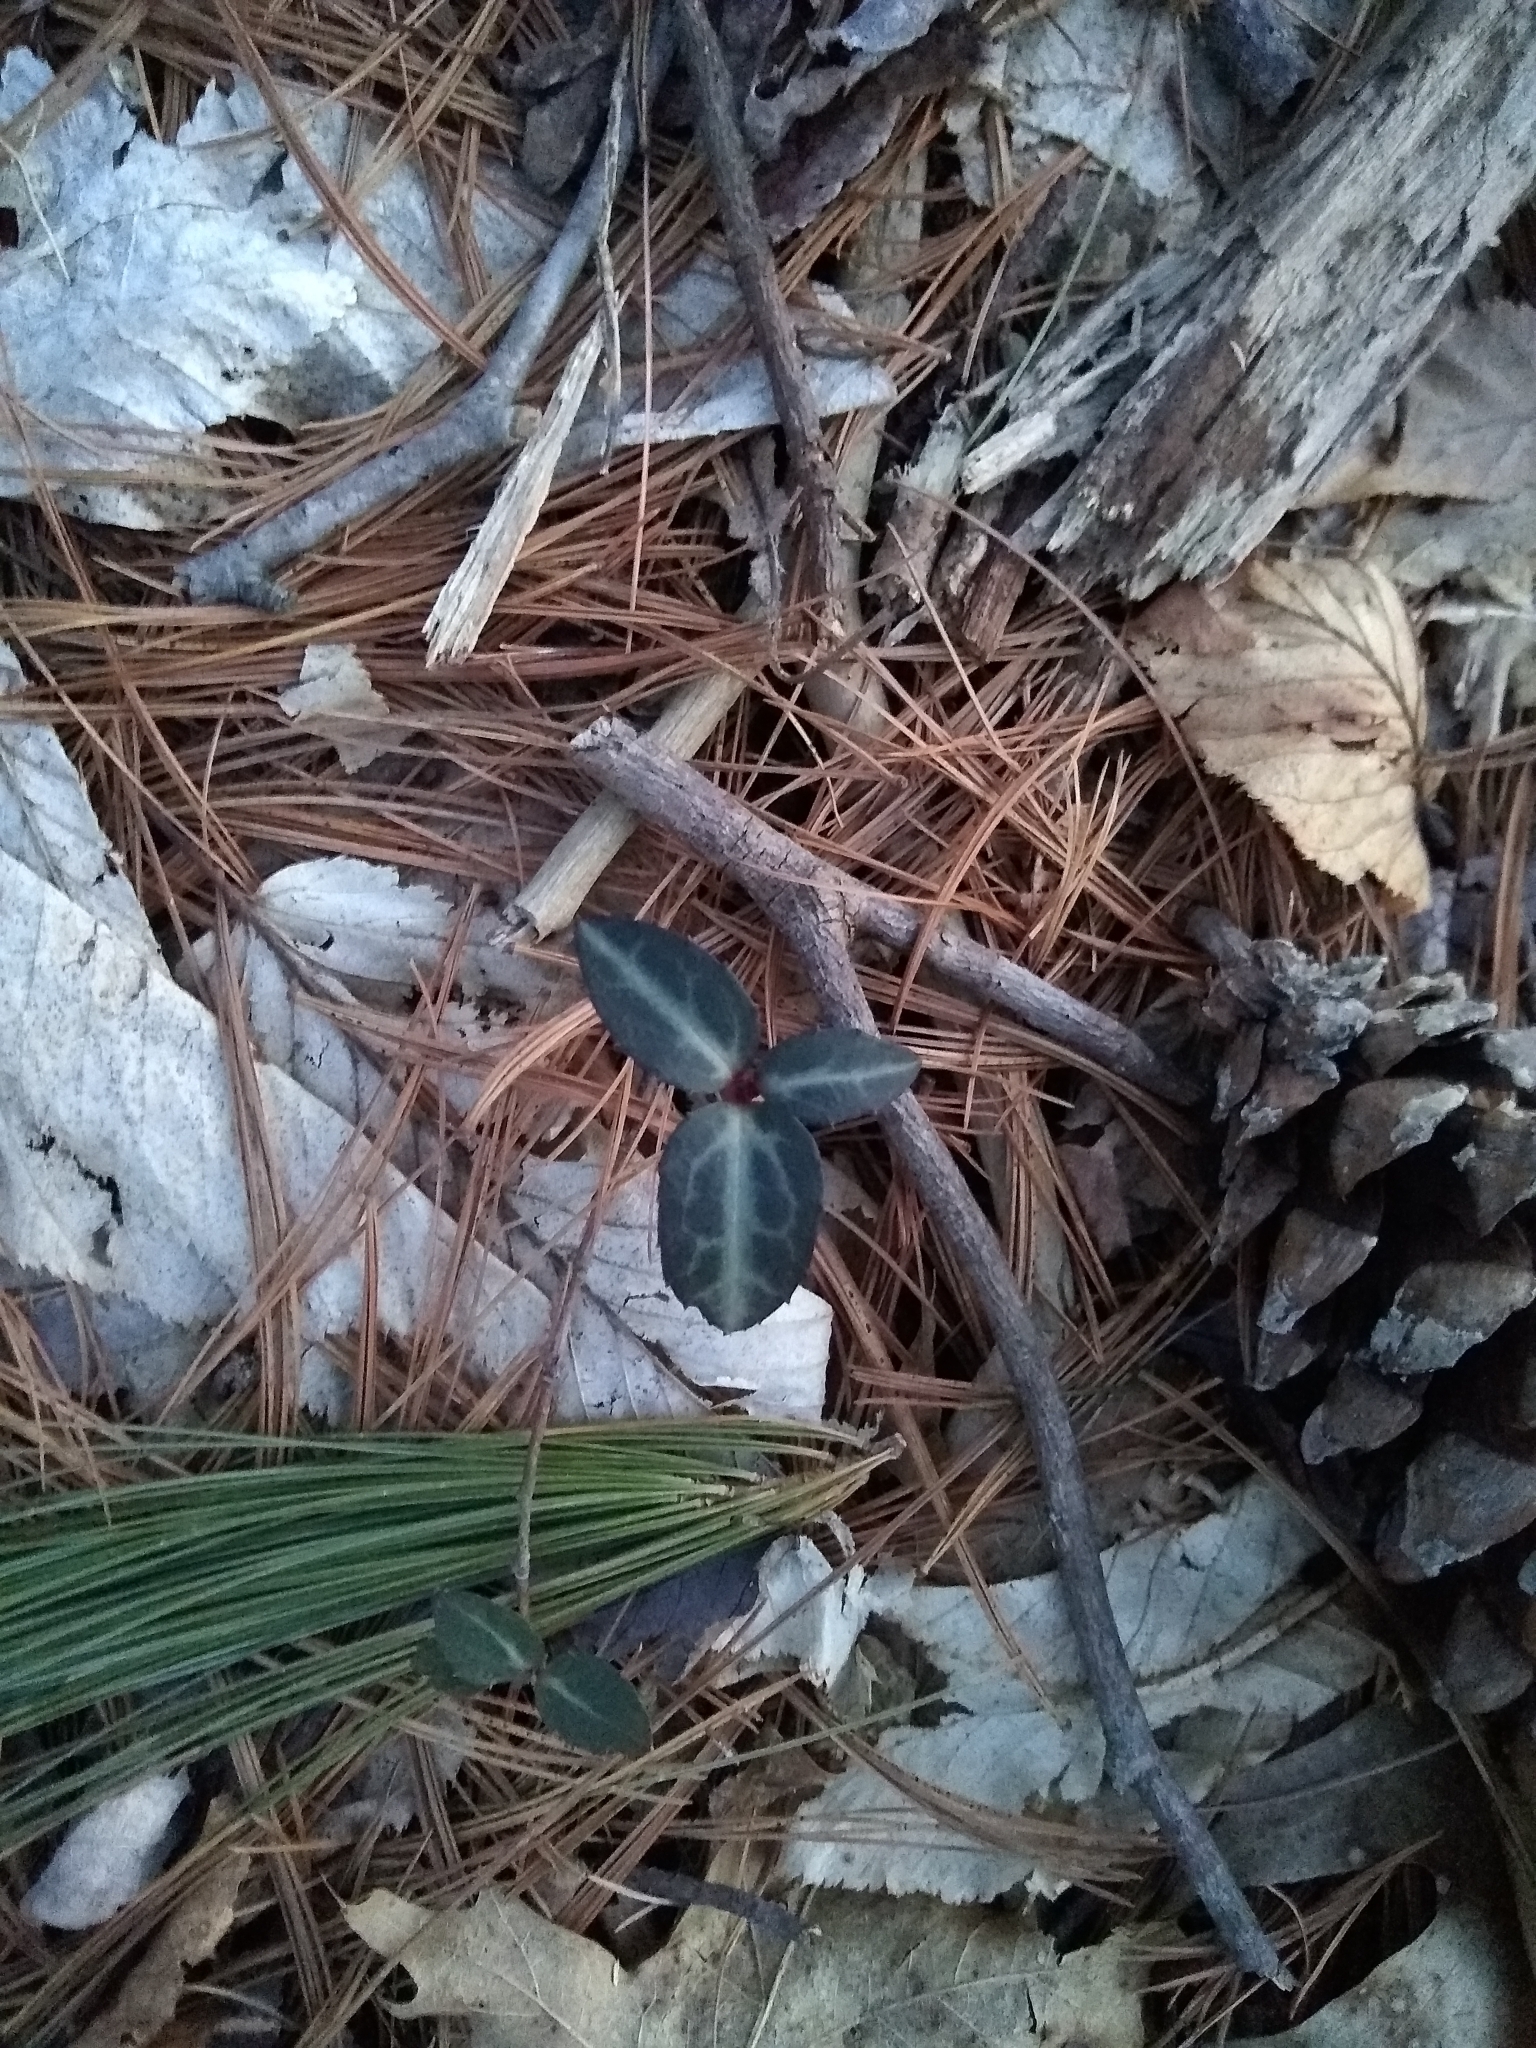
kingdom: Plantae
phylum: Tracheophyta
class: Magnoliopsida
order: Ericales
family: Ericaceae
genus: Chimaphila
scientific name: Chimaphila maculata
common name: Spotted pipsissewa
